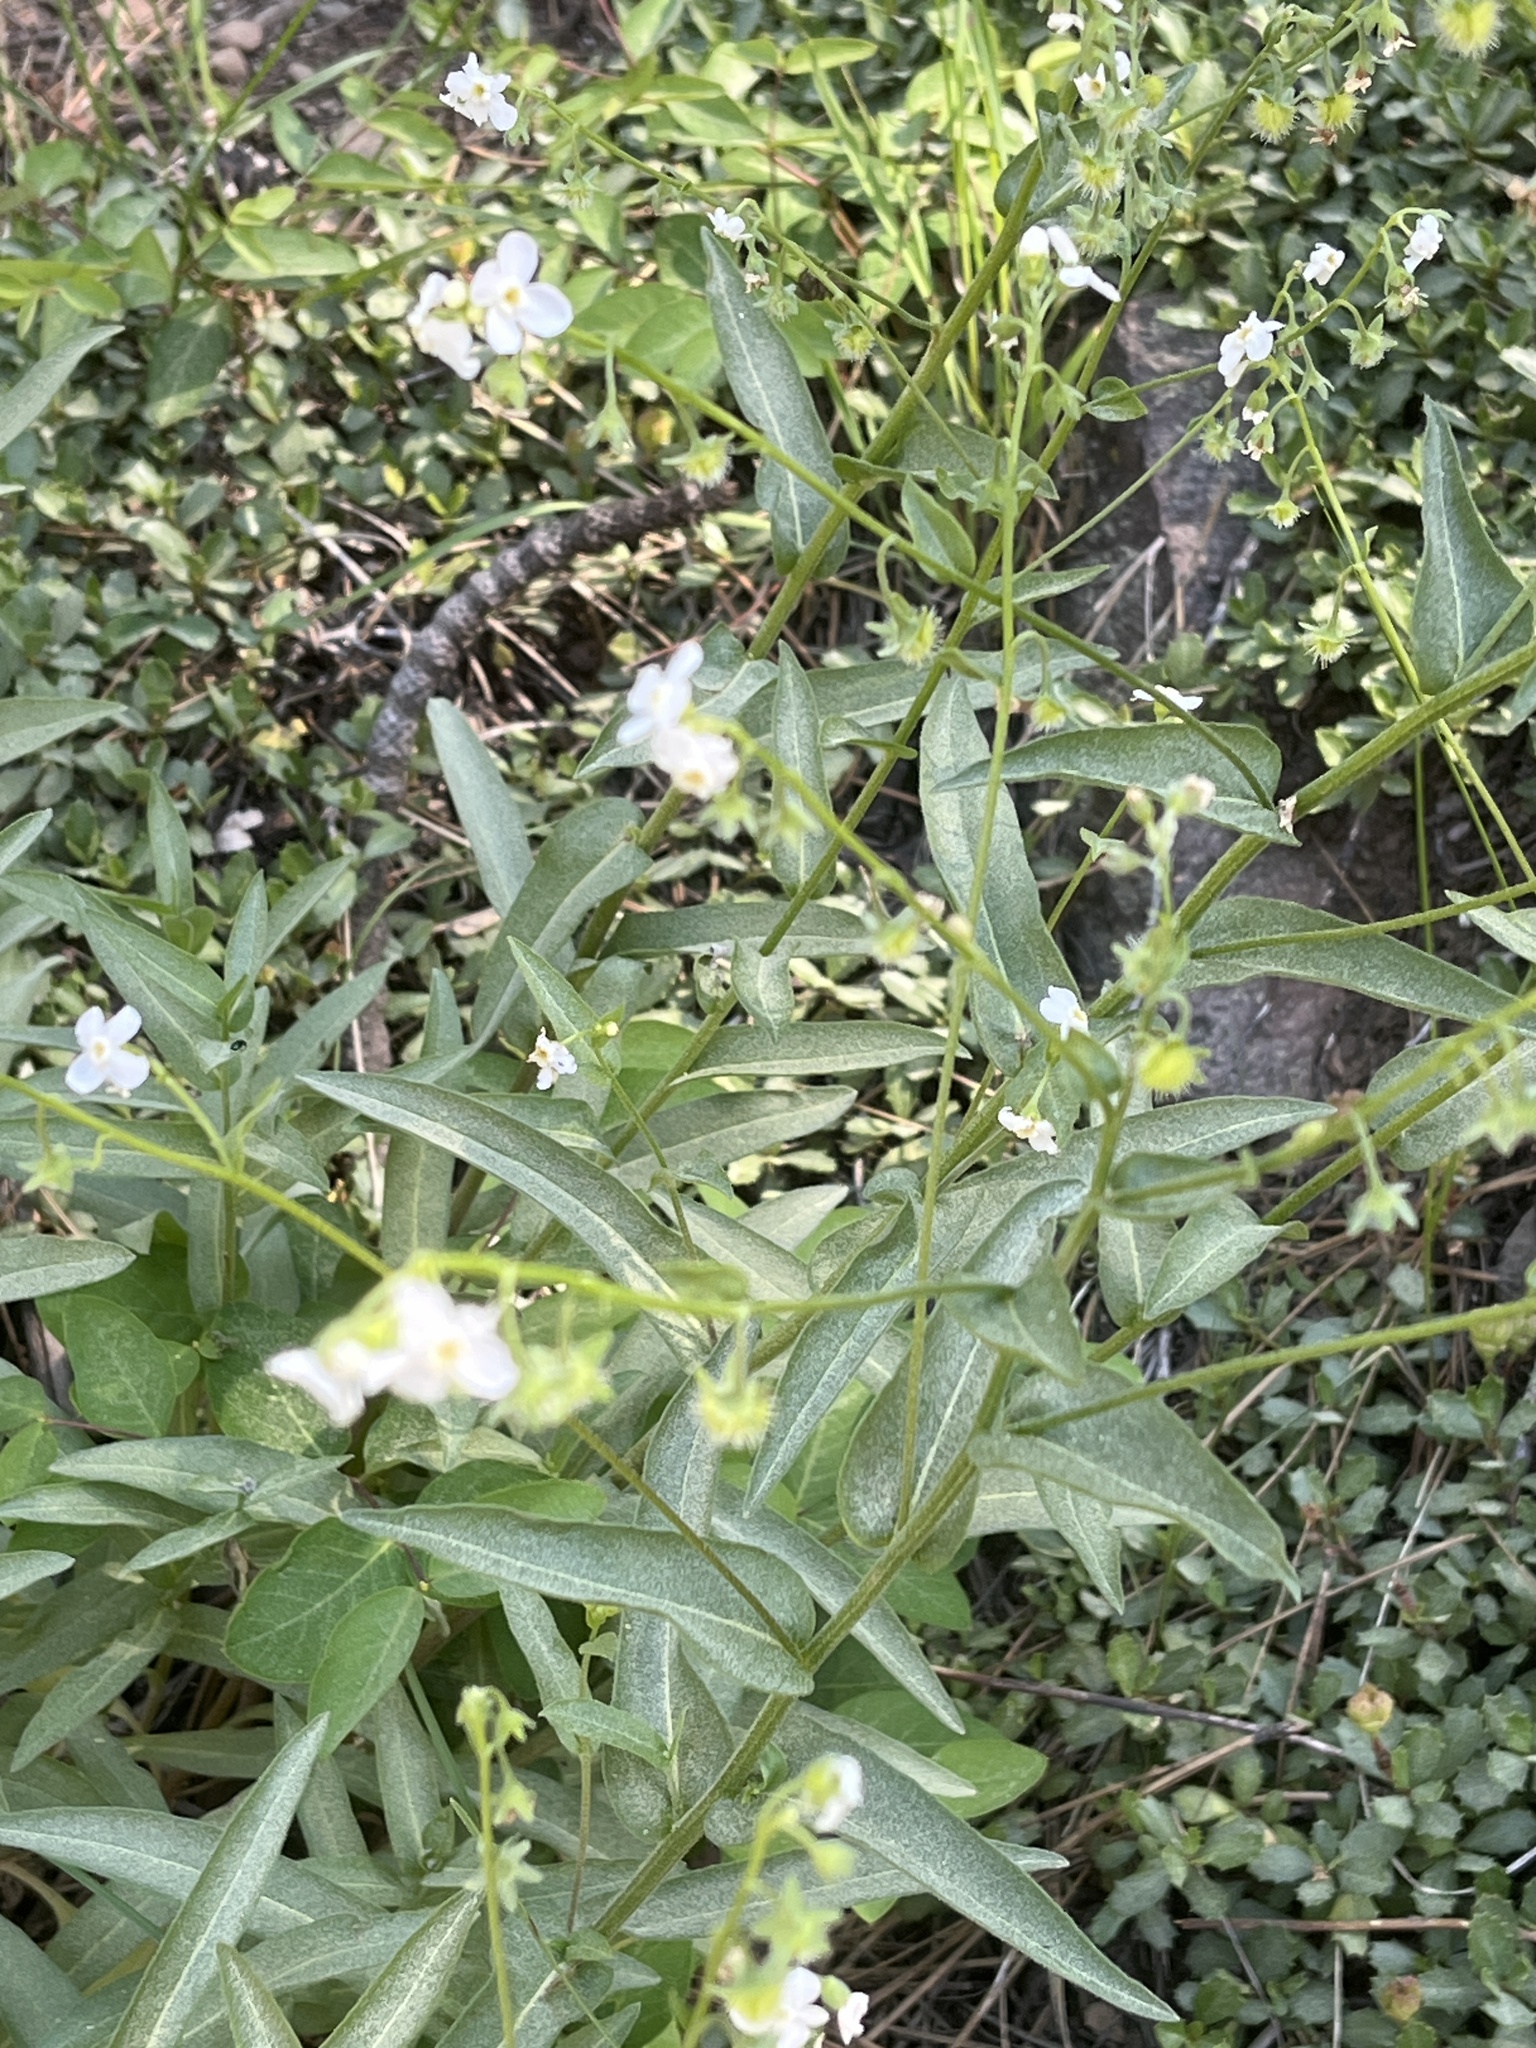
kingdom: Plantae
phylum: Tracheophyta
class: Magnoliopsida
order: Boraginales
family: Boraginaceae
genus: Hackelia
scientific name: Hackelia californica
